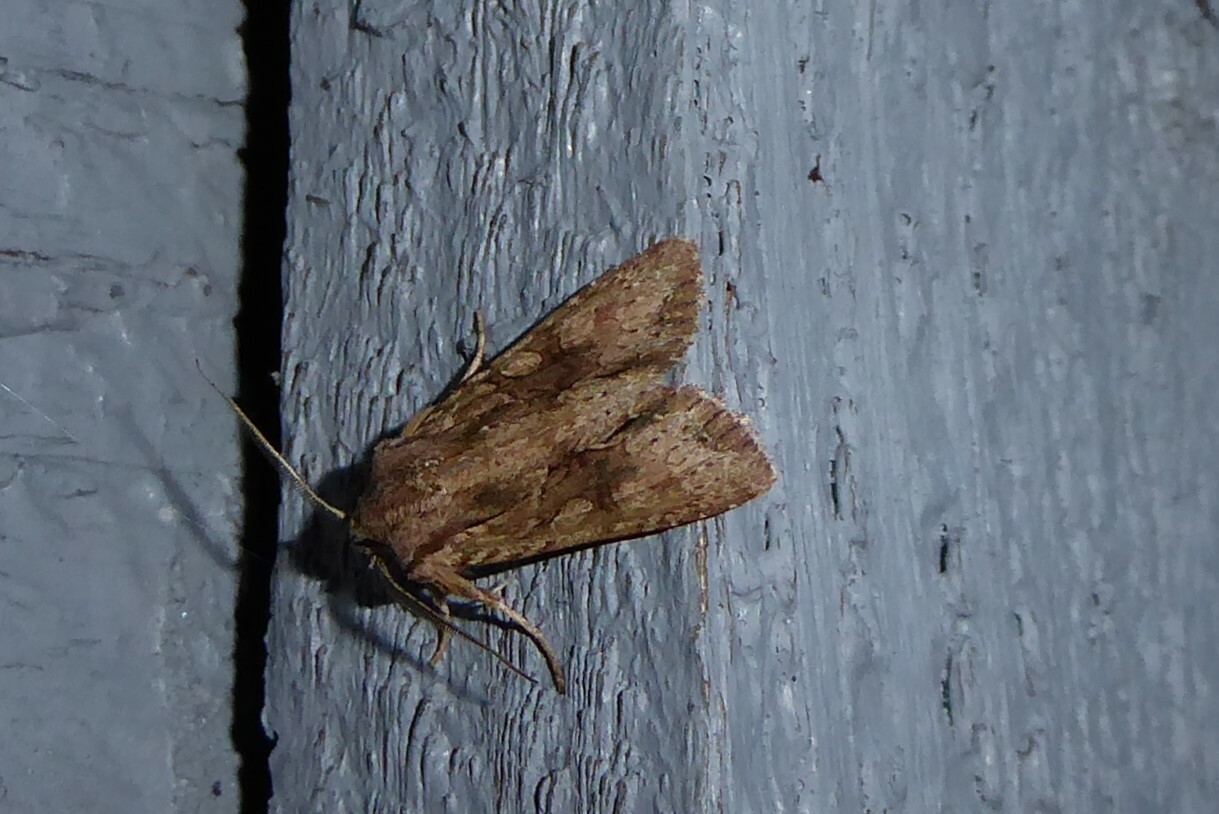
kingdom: Animalia
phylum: Arthropoda
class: Insecta
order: Lepidoptera
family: Noctuidae
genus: Ichneutica
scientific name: Ichneutica
